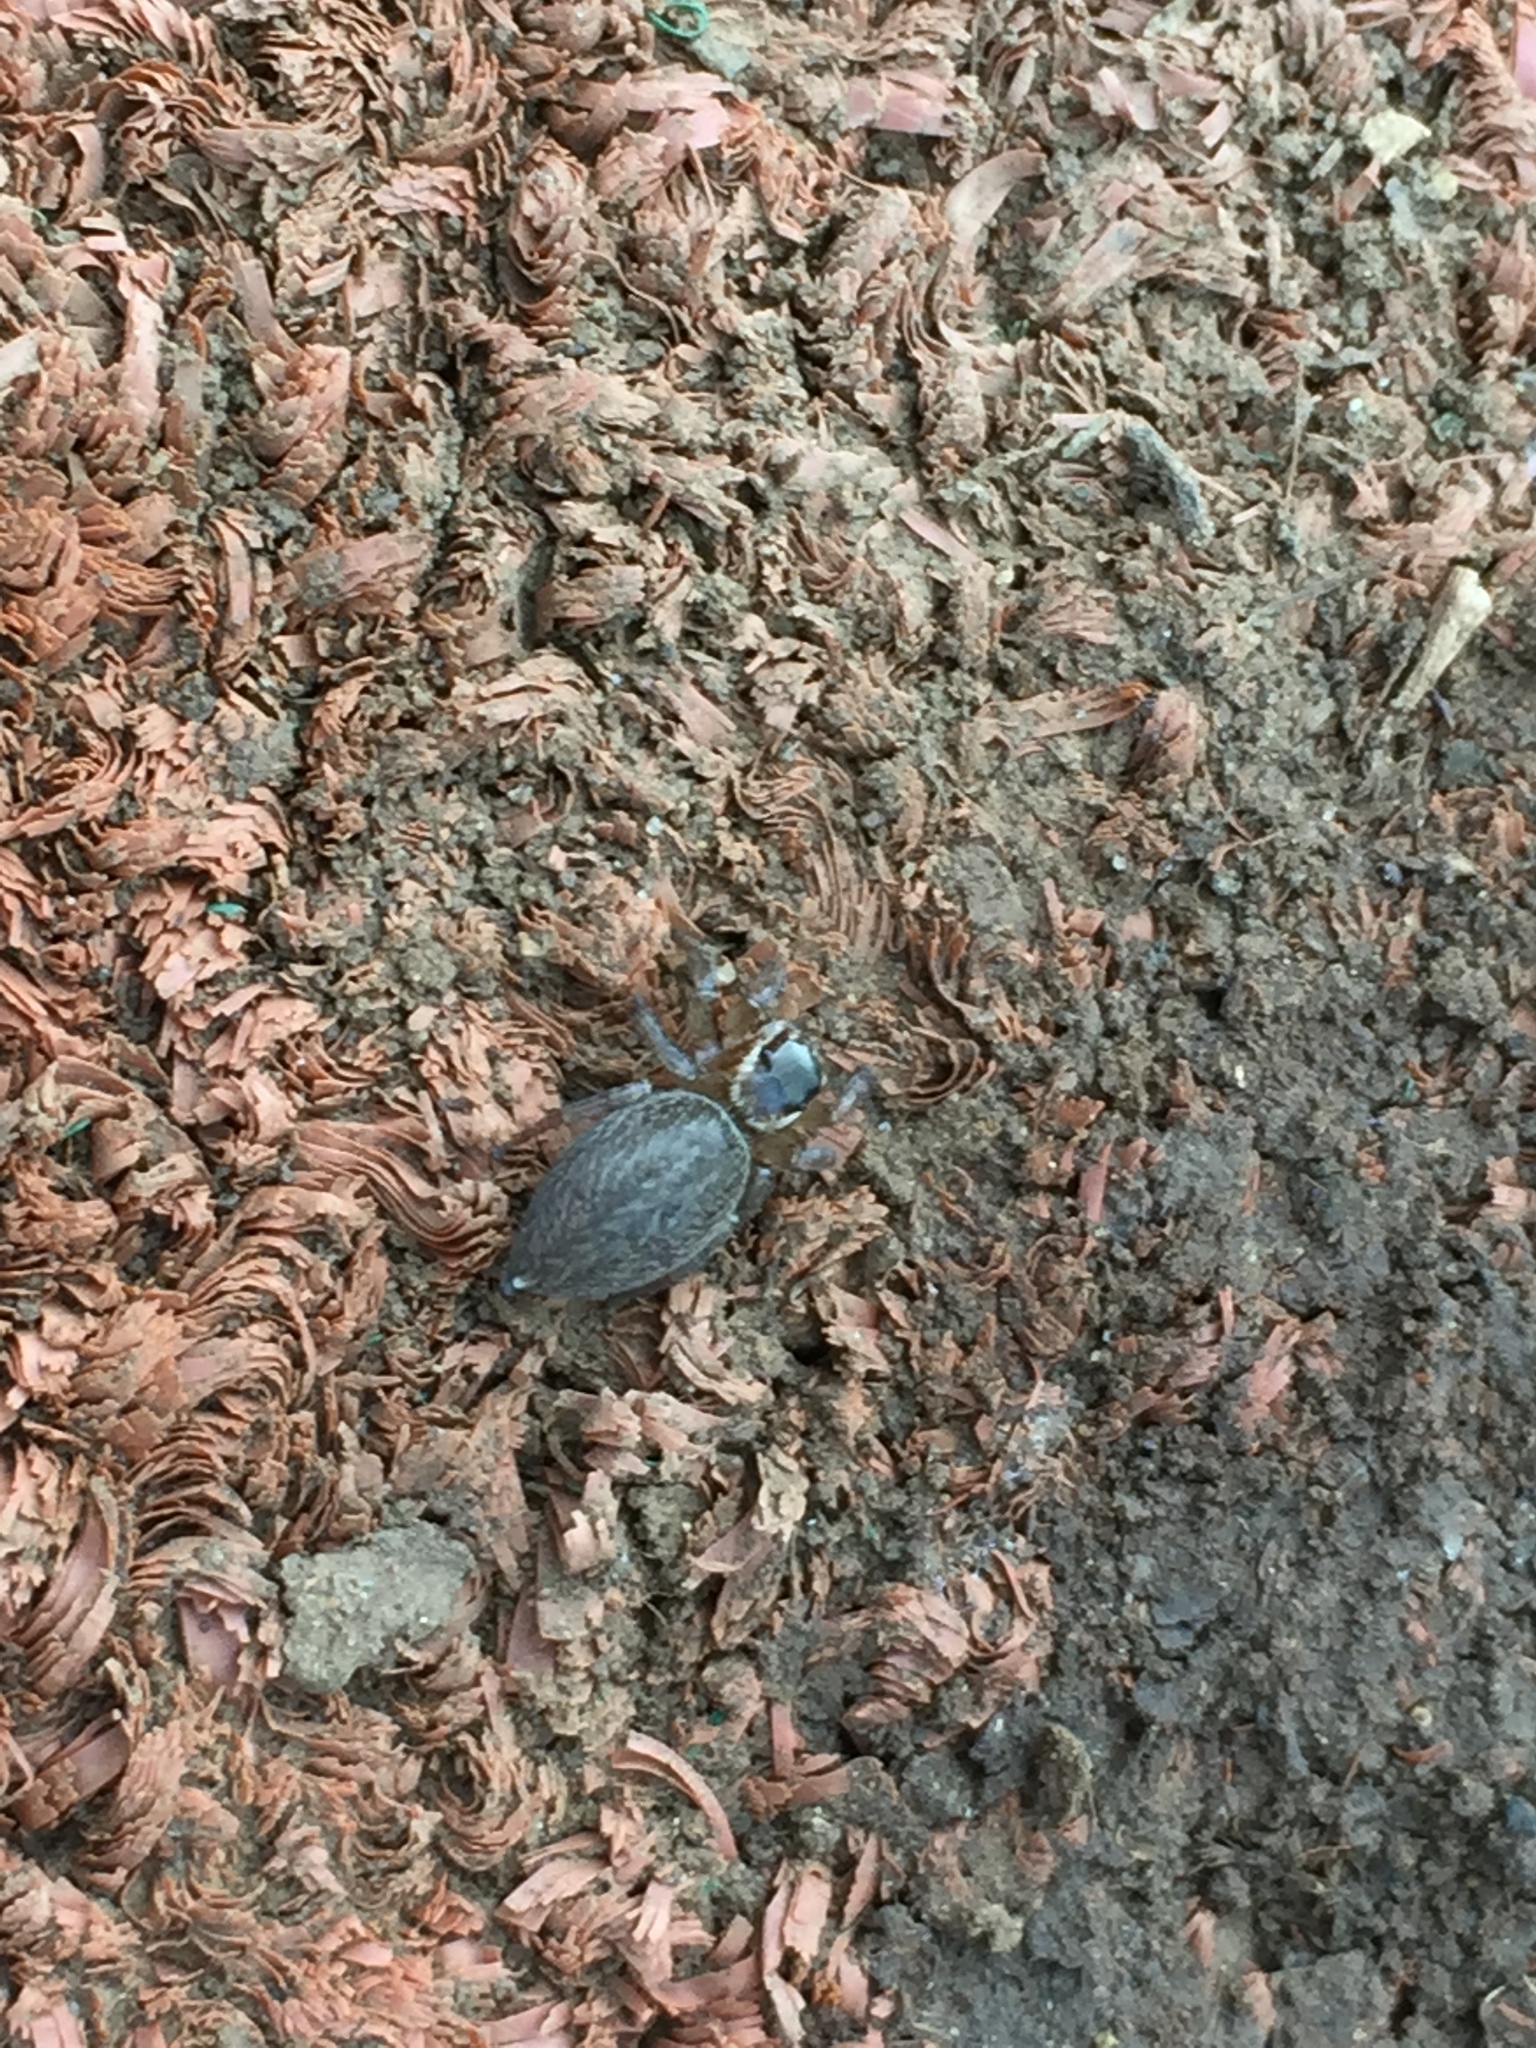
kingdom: Animalia
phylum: Arthropoda
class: Arachnida
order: Araneae
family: Salticidae
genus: Maratus
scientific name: Maratus griseus
